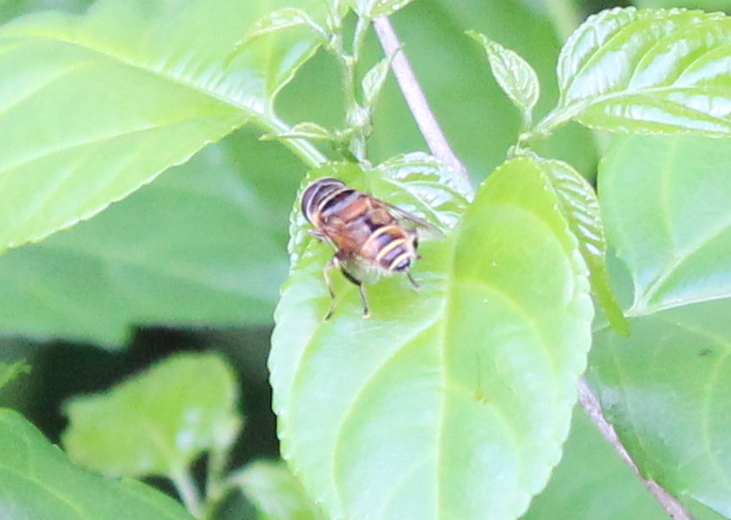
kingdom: Animalia
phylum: Arthropoda
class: Insecta
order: Diptera
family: Syrphidae
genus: Palpada
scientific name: Palpada vinetorum
